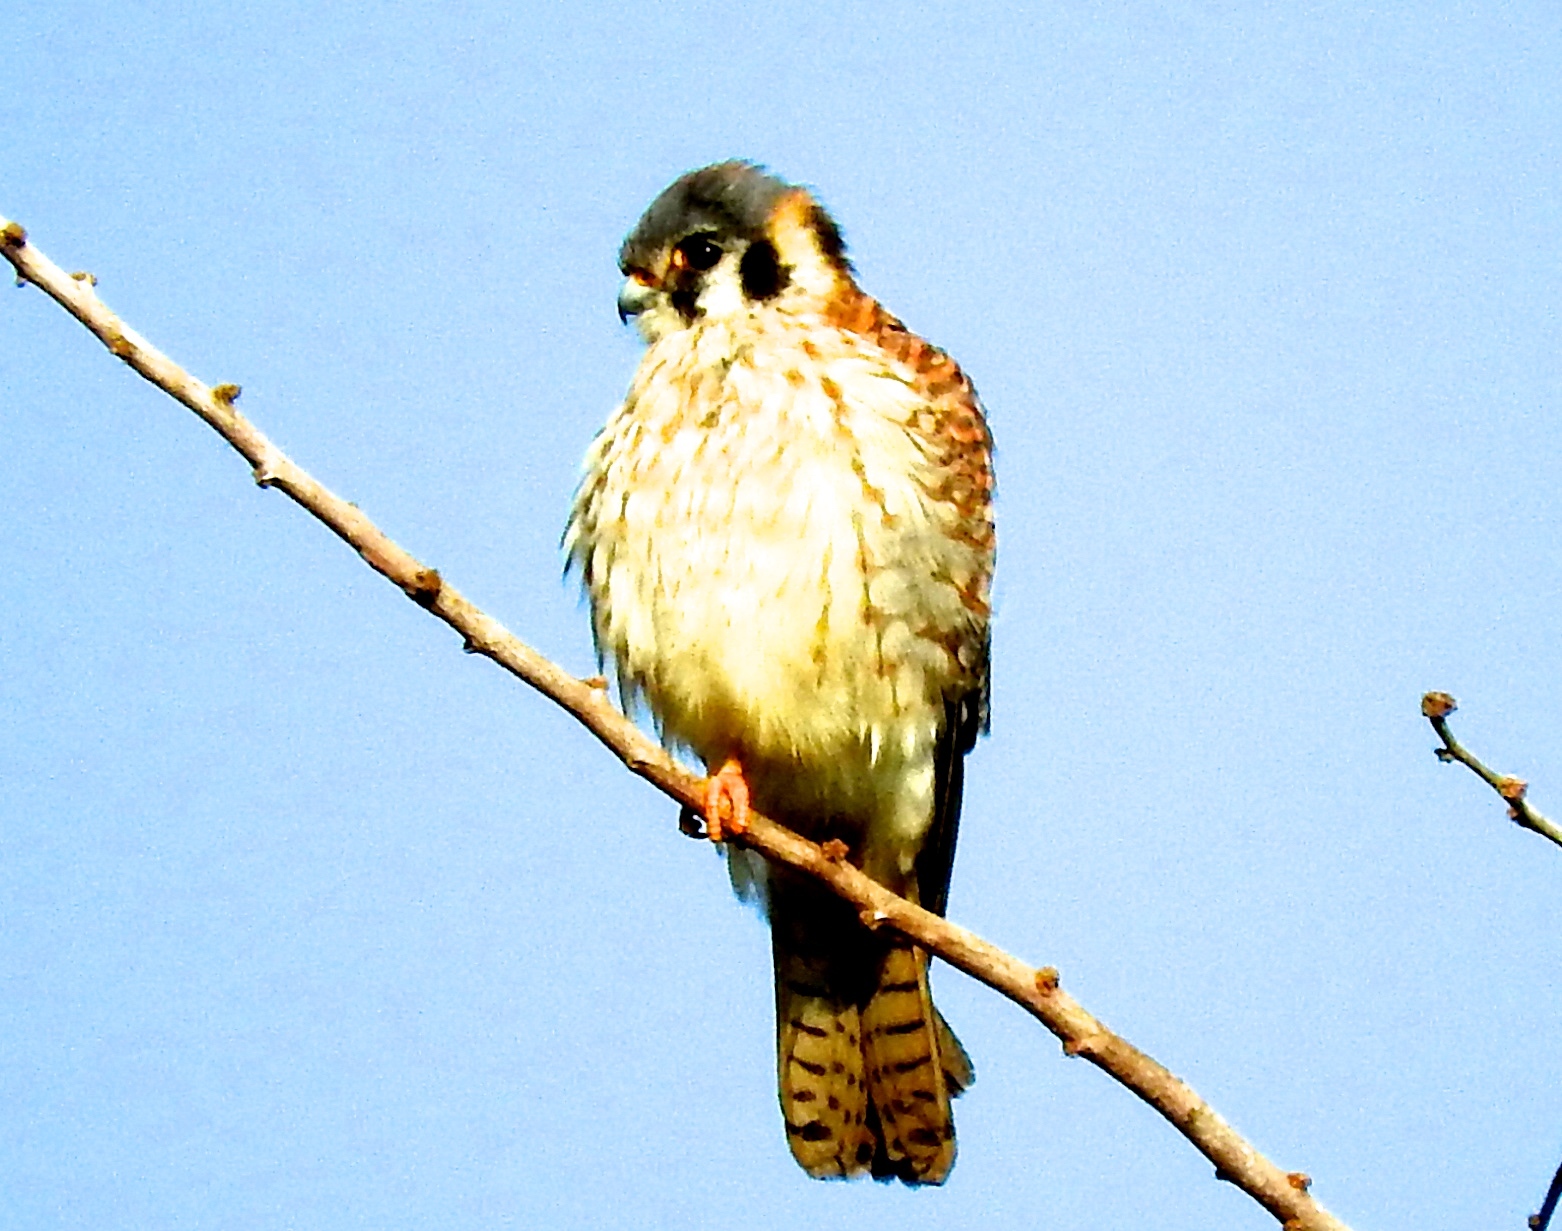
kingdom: Animalia
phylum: Chordata
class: Aves
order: Falconiformes
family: Falconidae
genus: Falco
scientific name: Falco sparverius
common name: American kestrel
